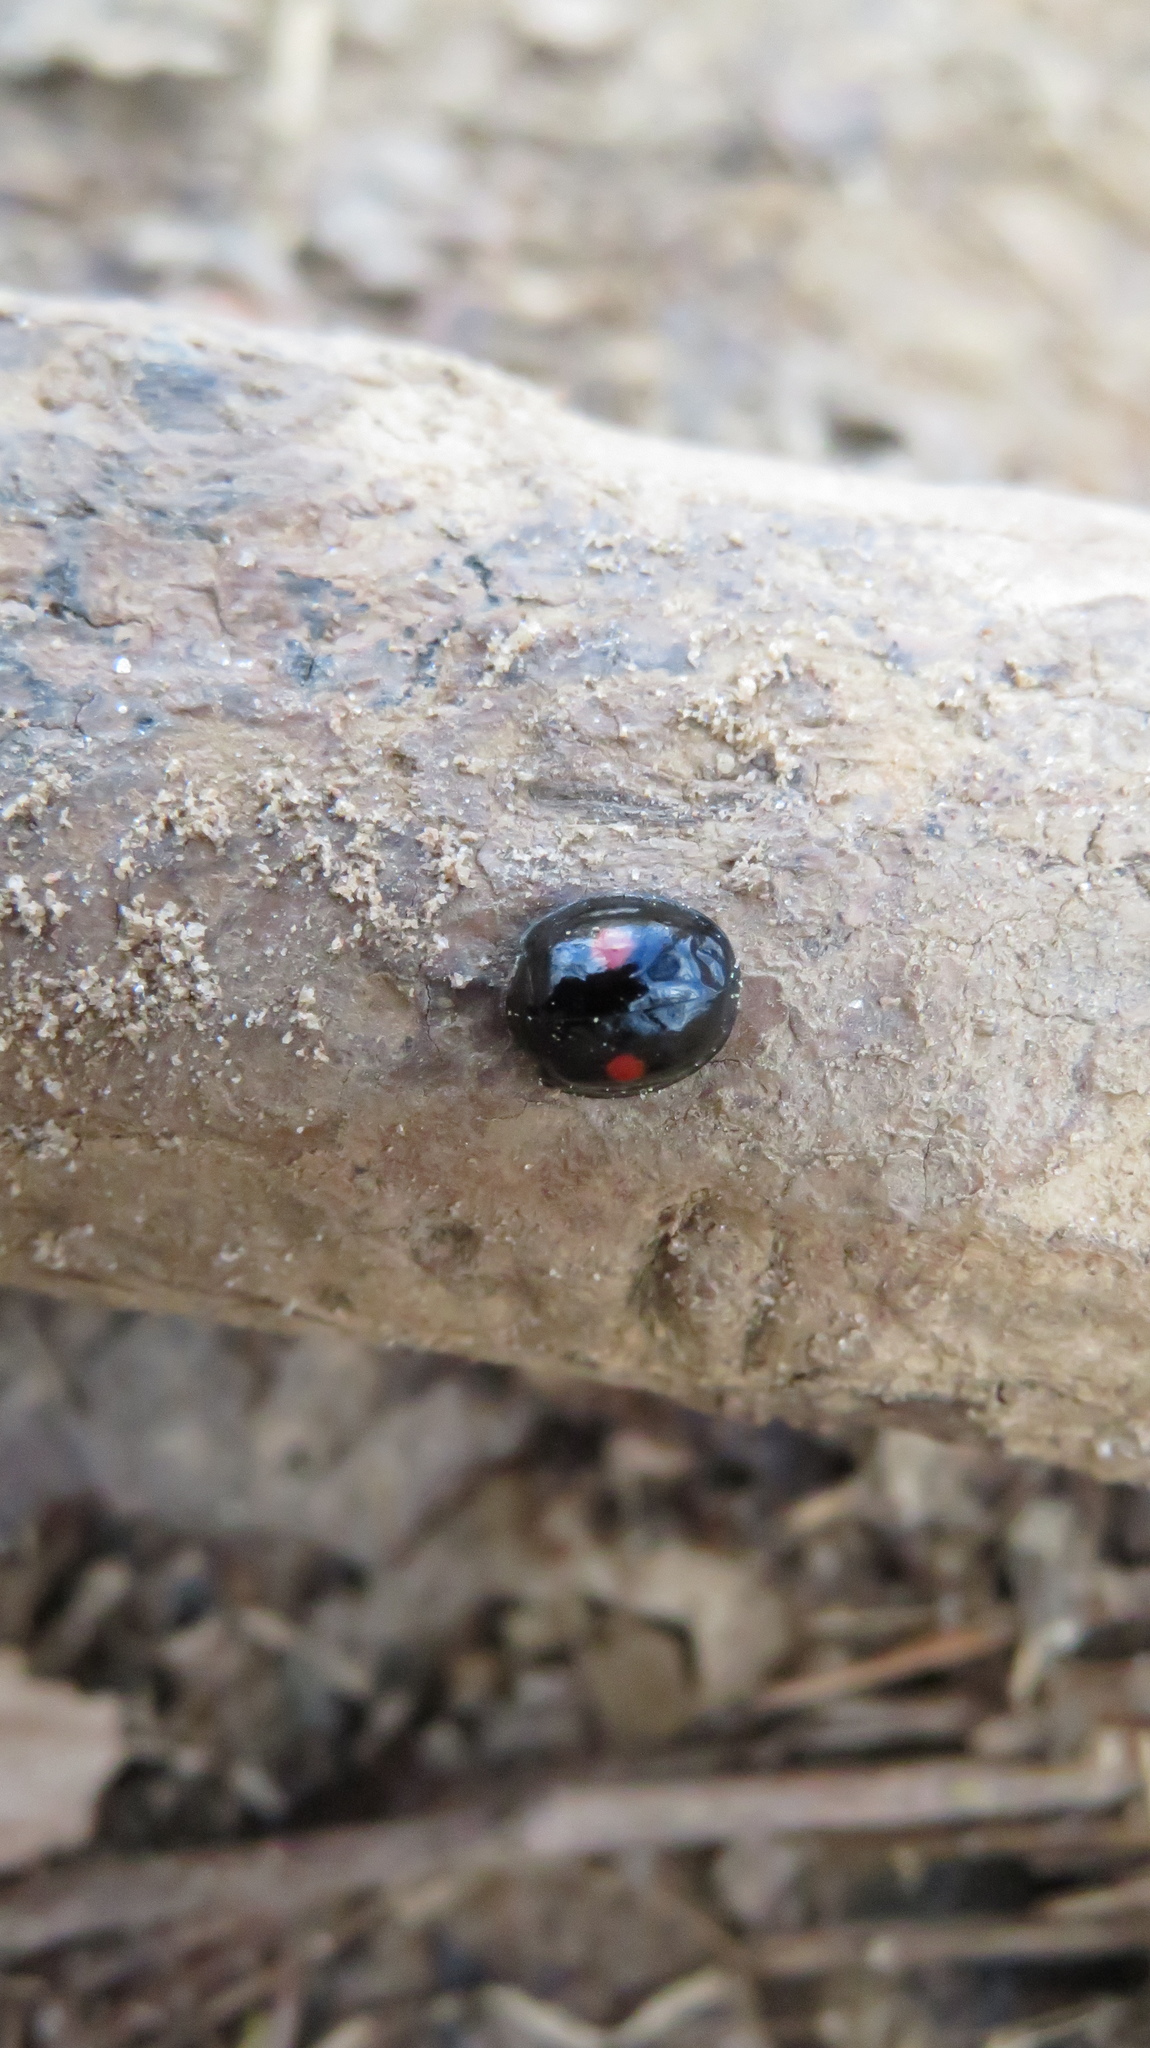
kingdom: Animalia
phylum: Arthropoda
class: Insecta
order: Coleoptera
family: Coccinellidae
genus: Chilocorus
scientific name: Chilocorus stigma
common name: Twicestabbed lady beetle
